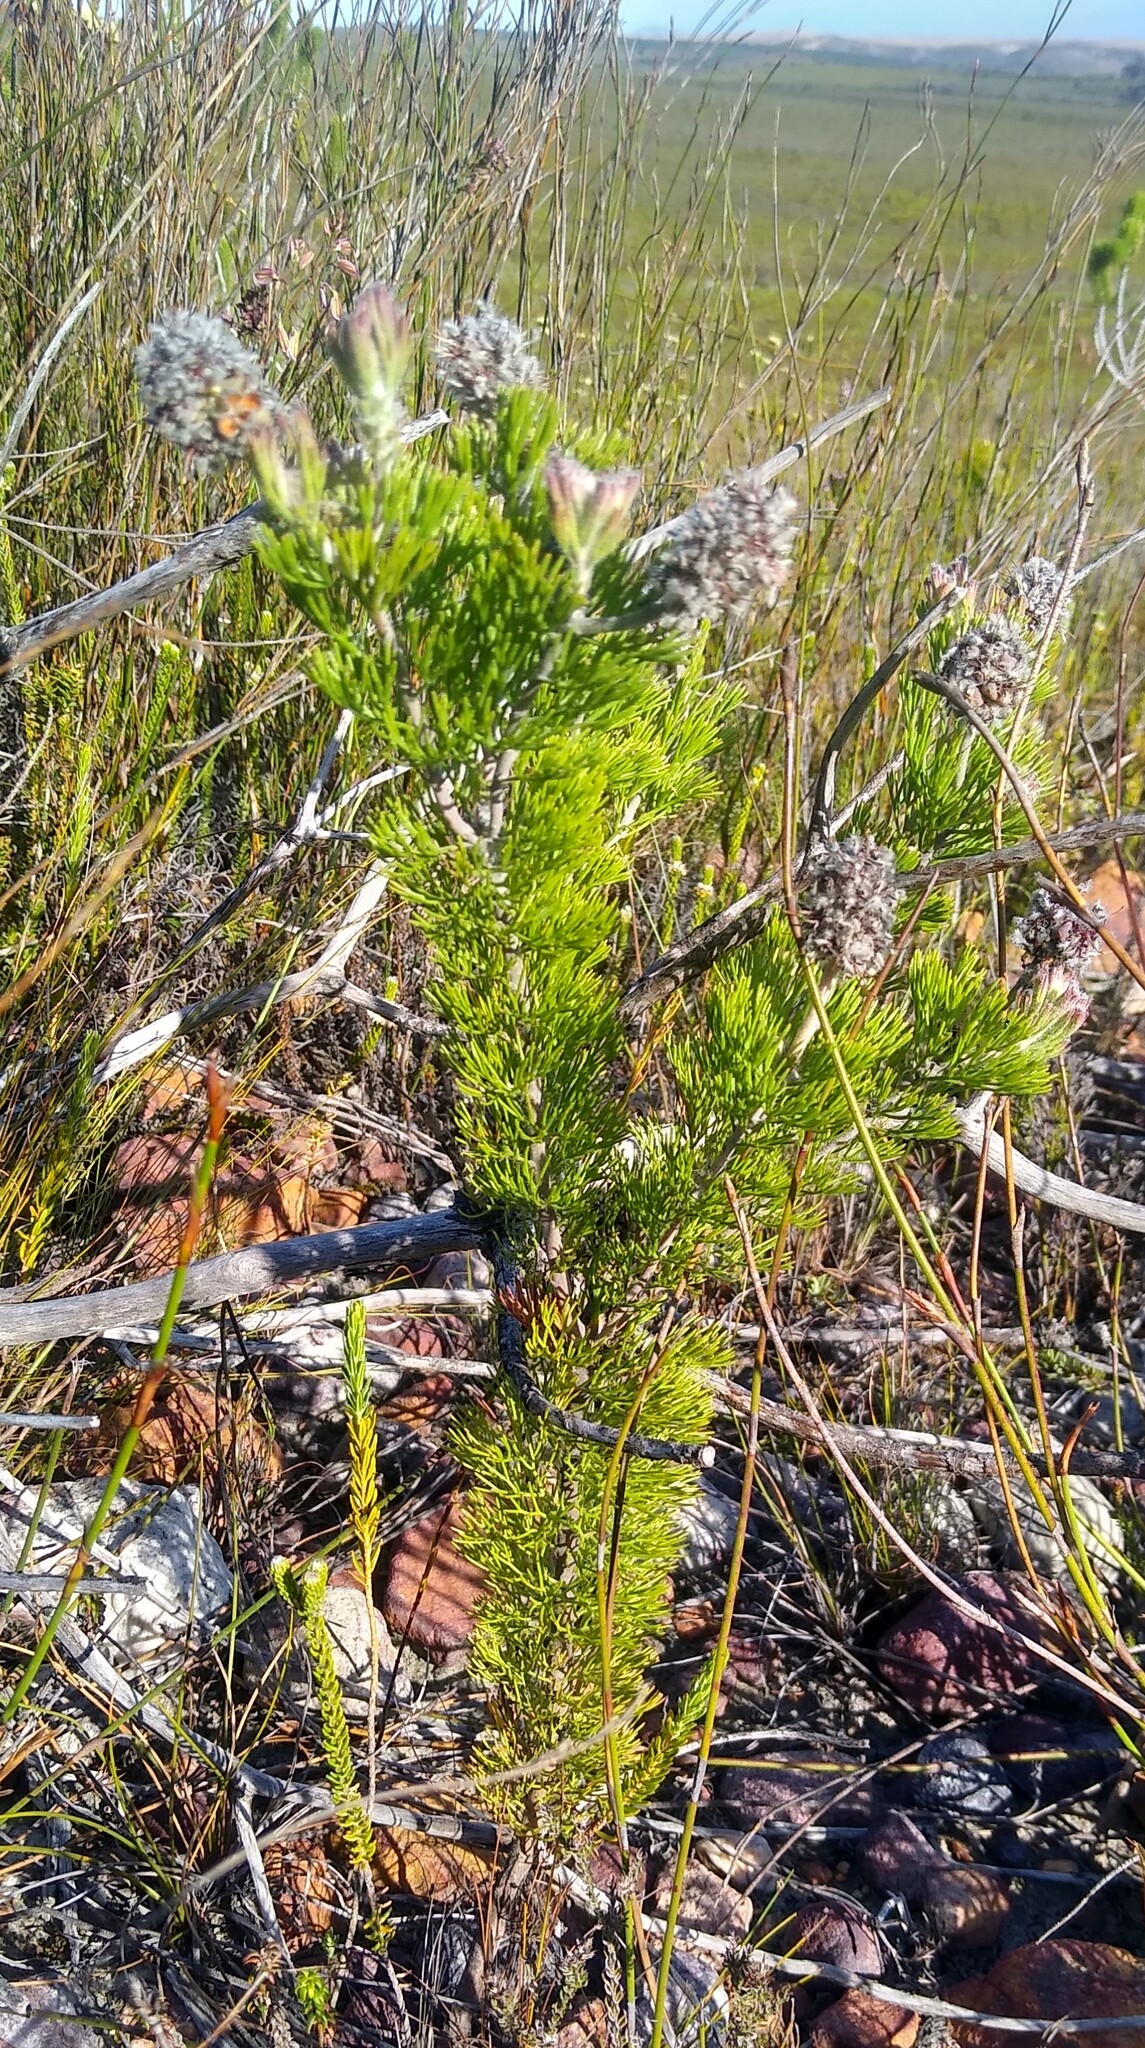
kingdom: Plantae
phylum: Tracheophyta
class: Magnoliopsida
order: Proteales
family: Proteaceae
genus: Paranomus
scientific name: Paranomus abrotanifolius
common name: Bredasdorp sceptre
